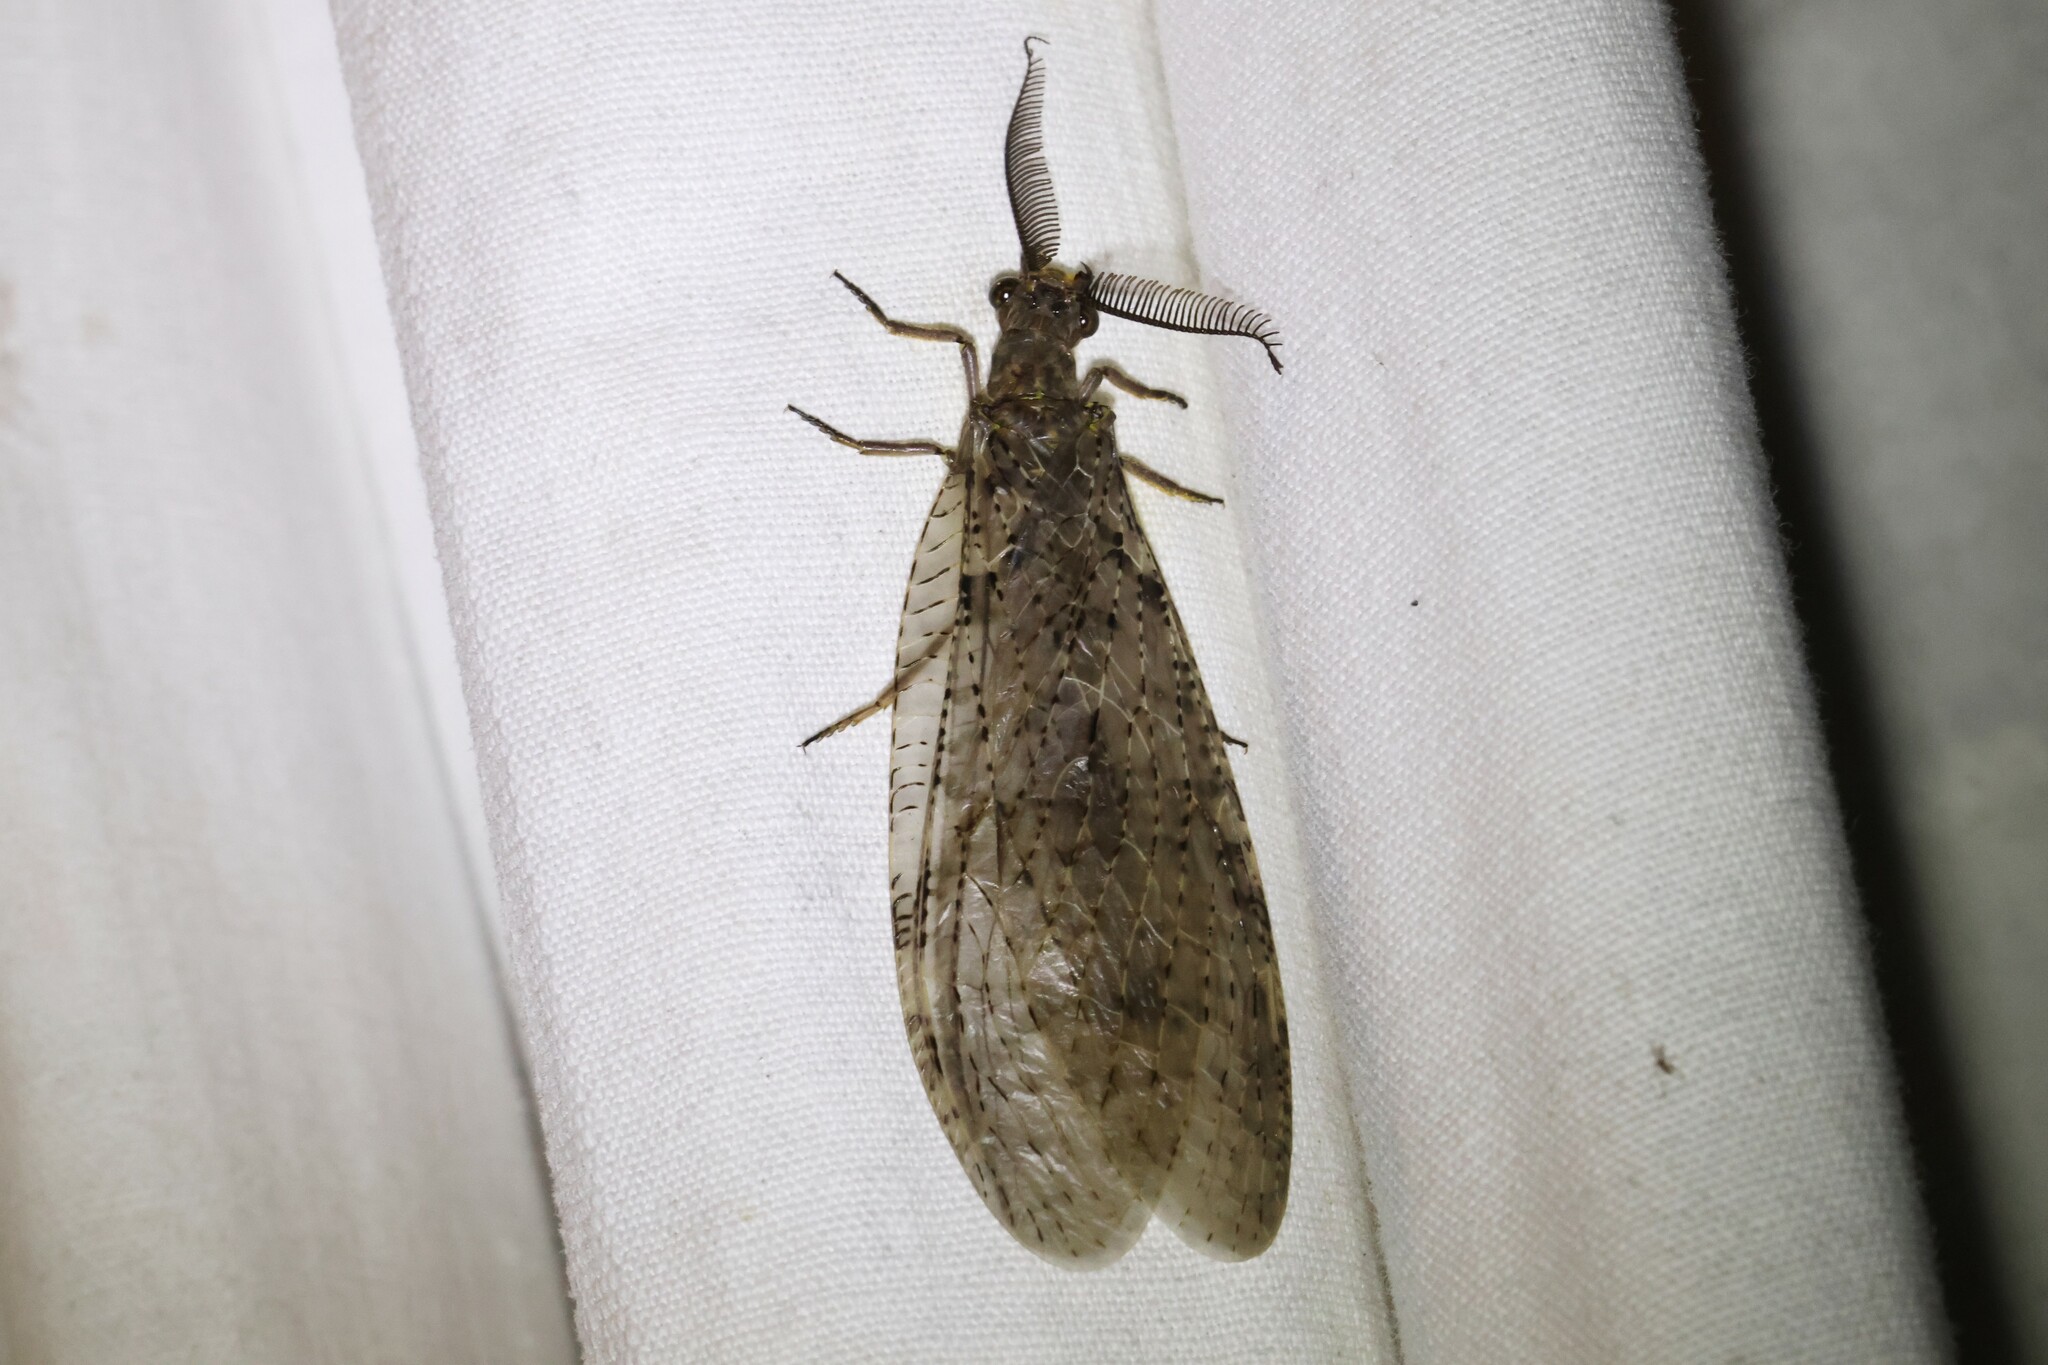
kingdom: Animalia
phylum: Arthropoda
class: Insecta
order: Megaloptera
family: Corydalidae
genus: Chauliodes
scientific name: Chauliodes pectinicornis
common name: Summer fishfly
